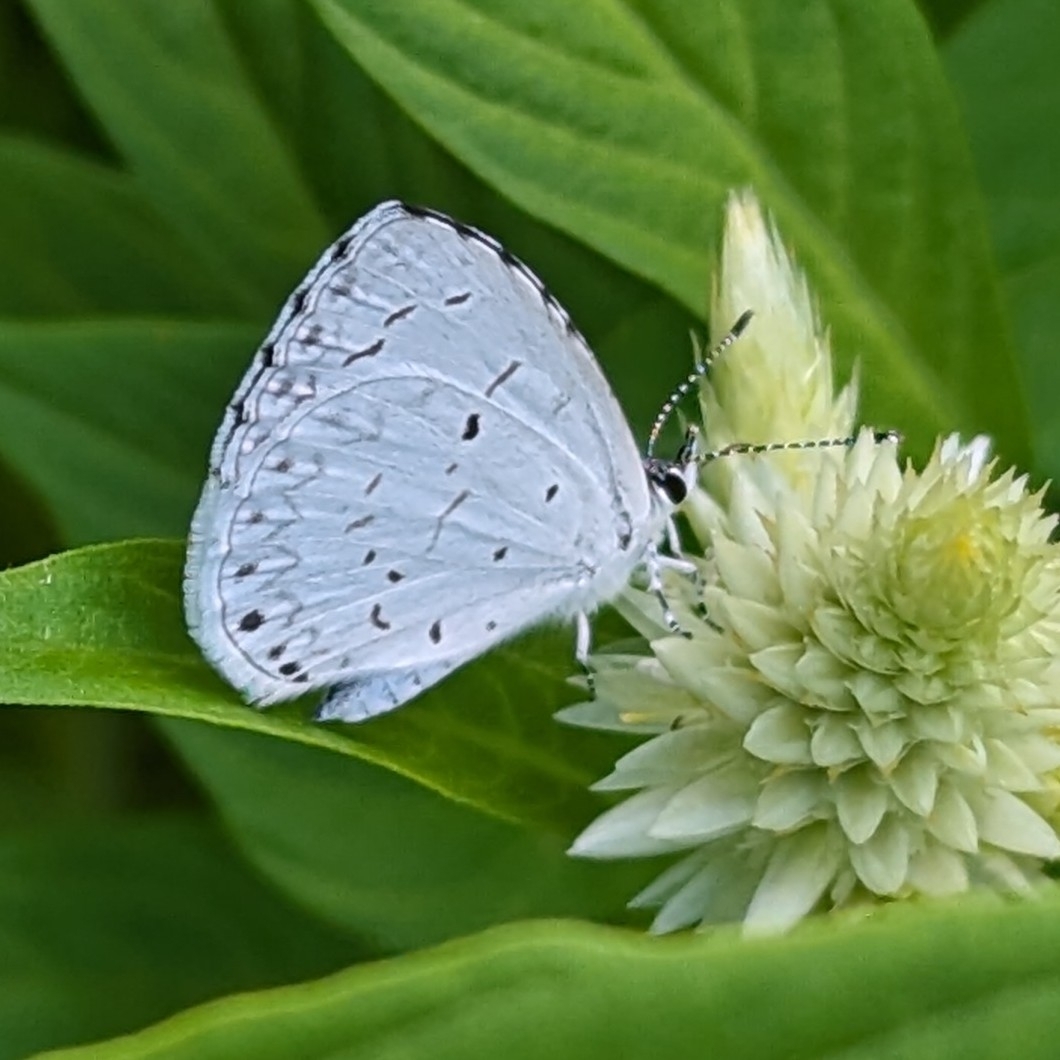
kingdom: Animalia
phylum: Arthropoda
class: Insecta
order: Lepidoptera
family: Lycaenidae
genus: Cyaniris
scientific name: Cyaniris neglecta
